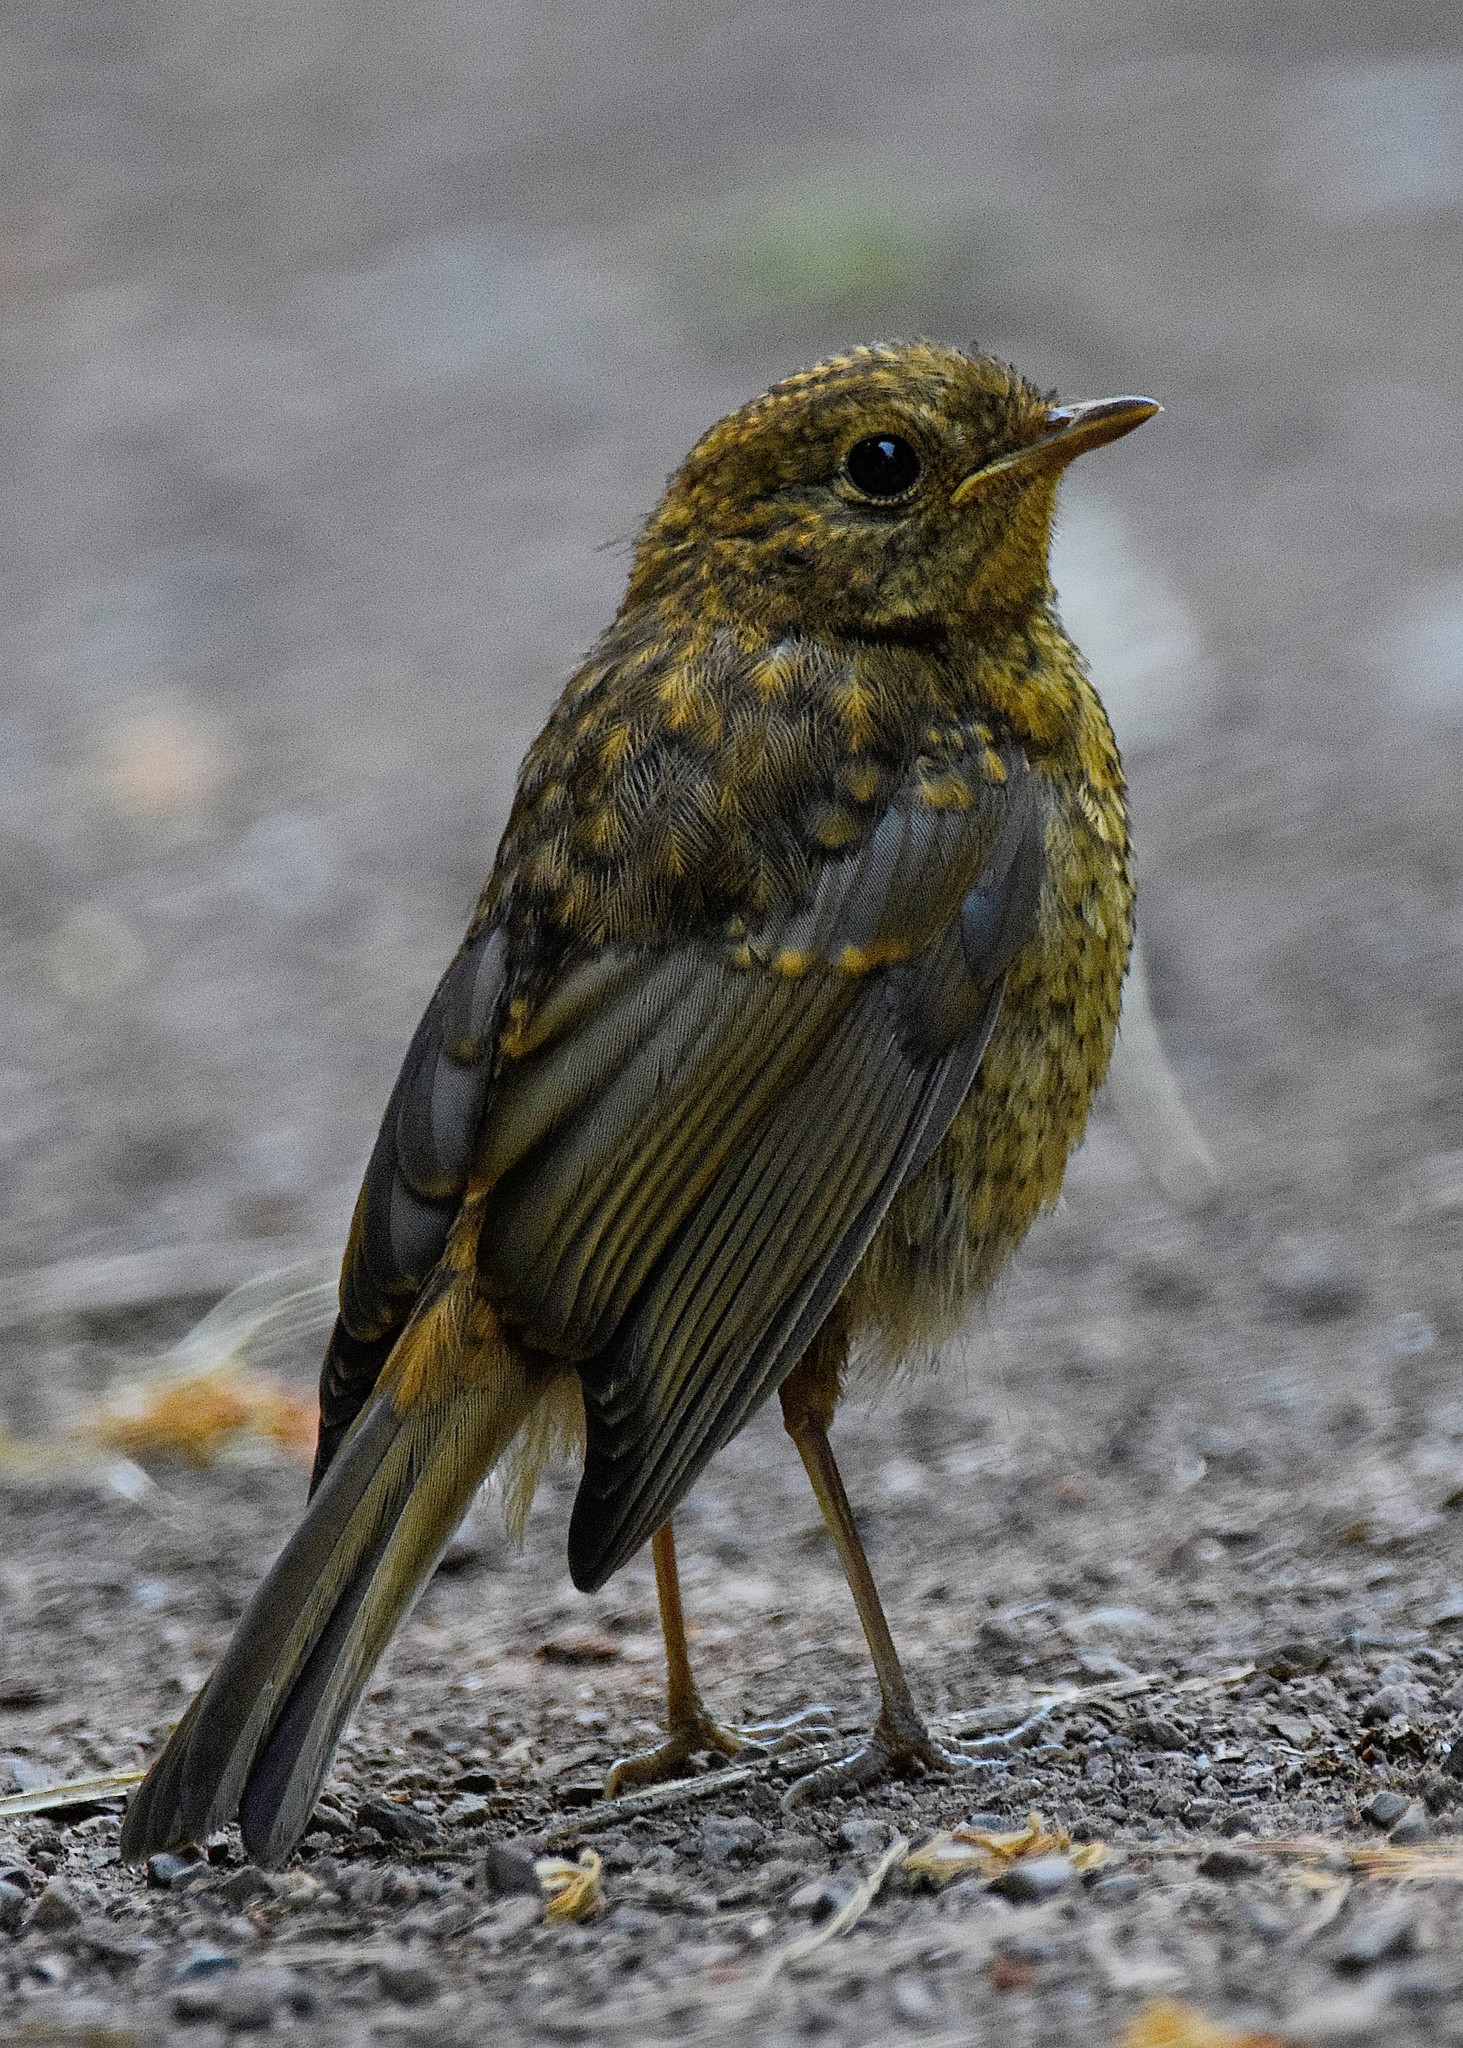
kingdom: Animalia
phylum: Chordata
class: Aves
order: Passeriformes
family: Muscicapidae
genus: Erithacus
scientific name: Erithacus rubecula
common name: European robin
